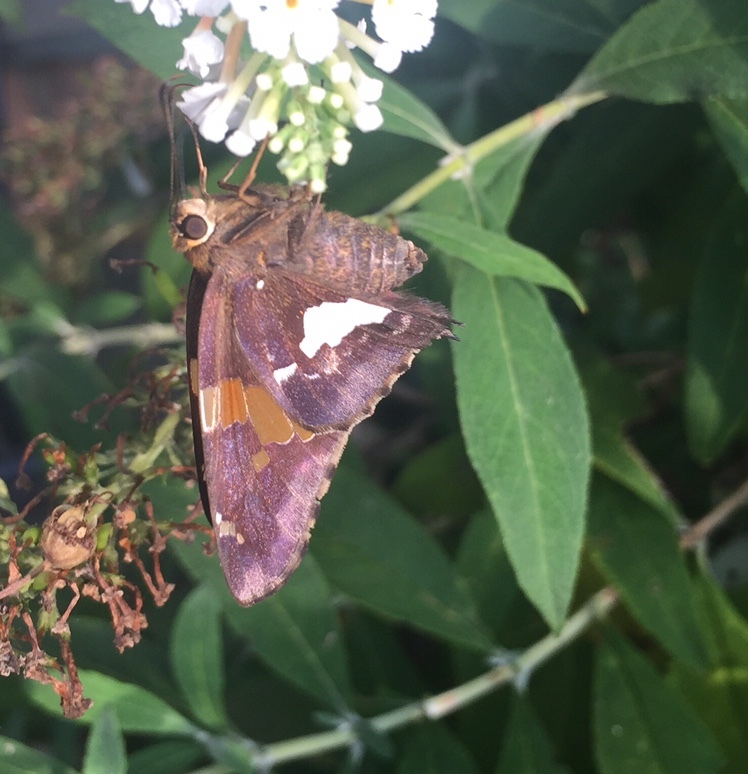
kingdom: Animalia
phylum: Arthropoda
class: Insecta
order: Lepidoptera
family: Hesperiidae
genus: Epargyreus
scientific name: Epargyreus clarus
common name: Silver-spotted skipper
